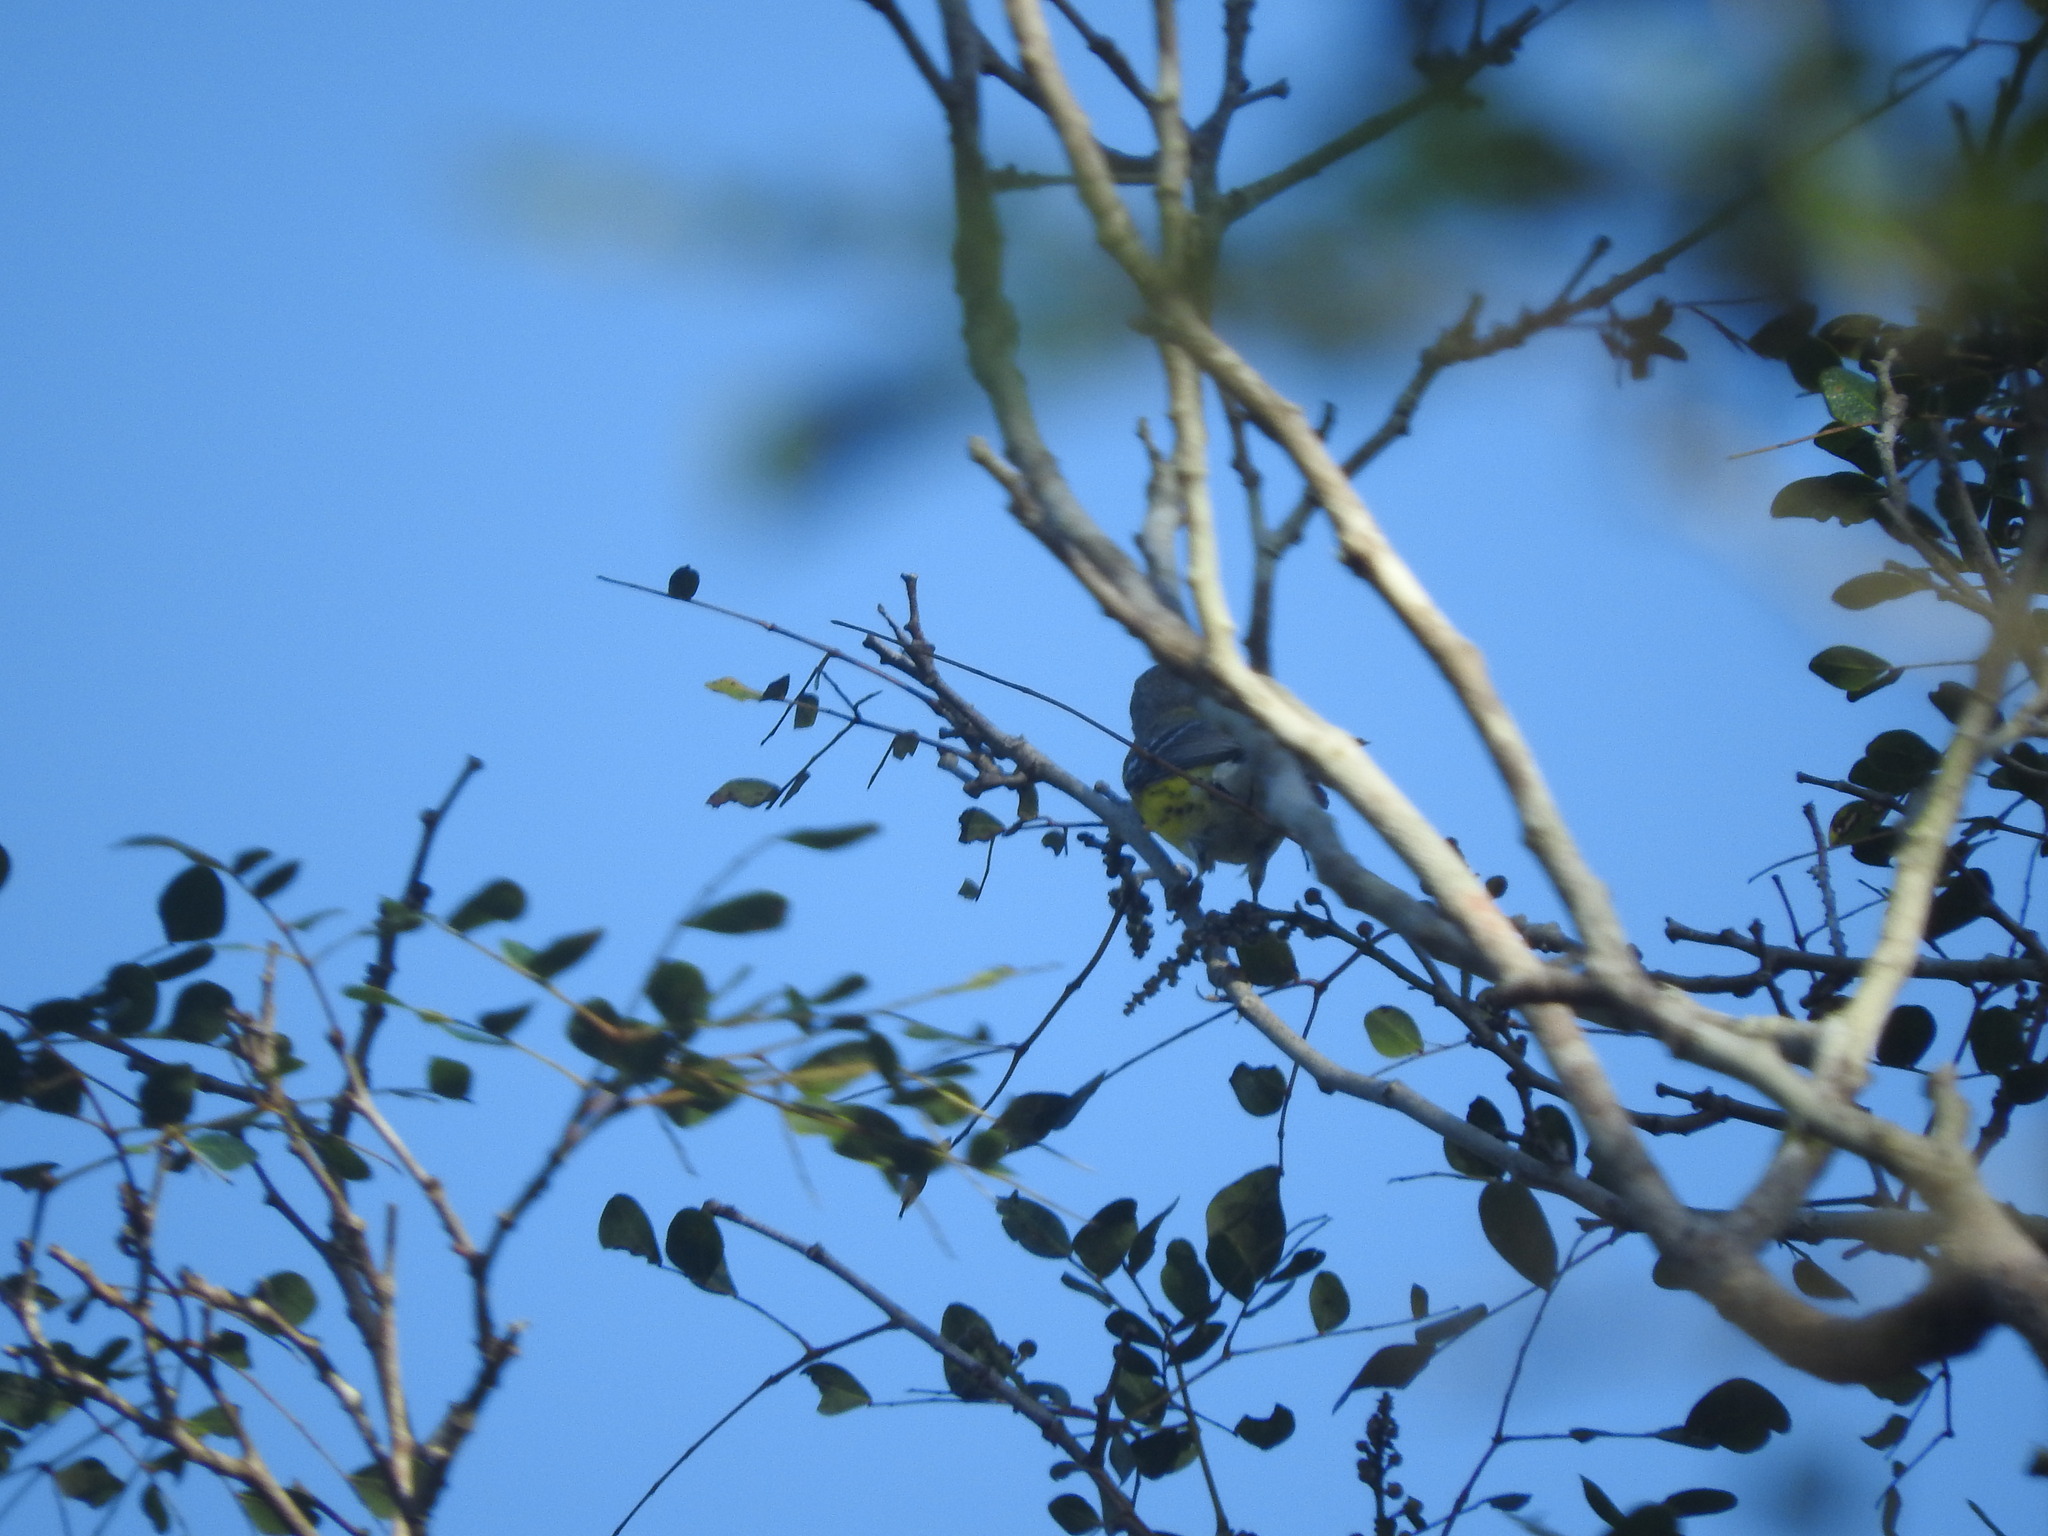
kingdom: Animalia
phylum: Chordata
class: Aves
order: Passeriformes
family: Parulidae
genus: Setophaga
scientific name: Setophaga magnolia
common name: Magnolia warbler
